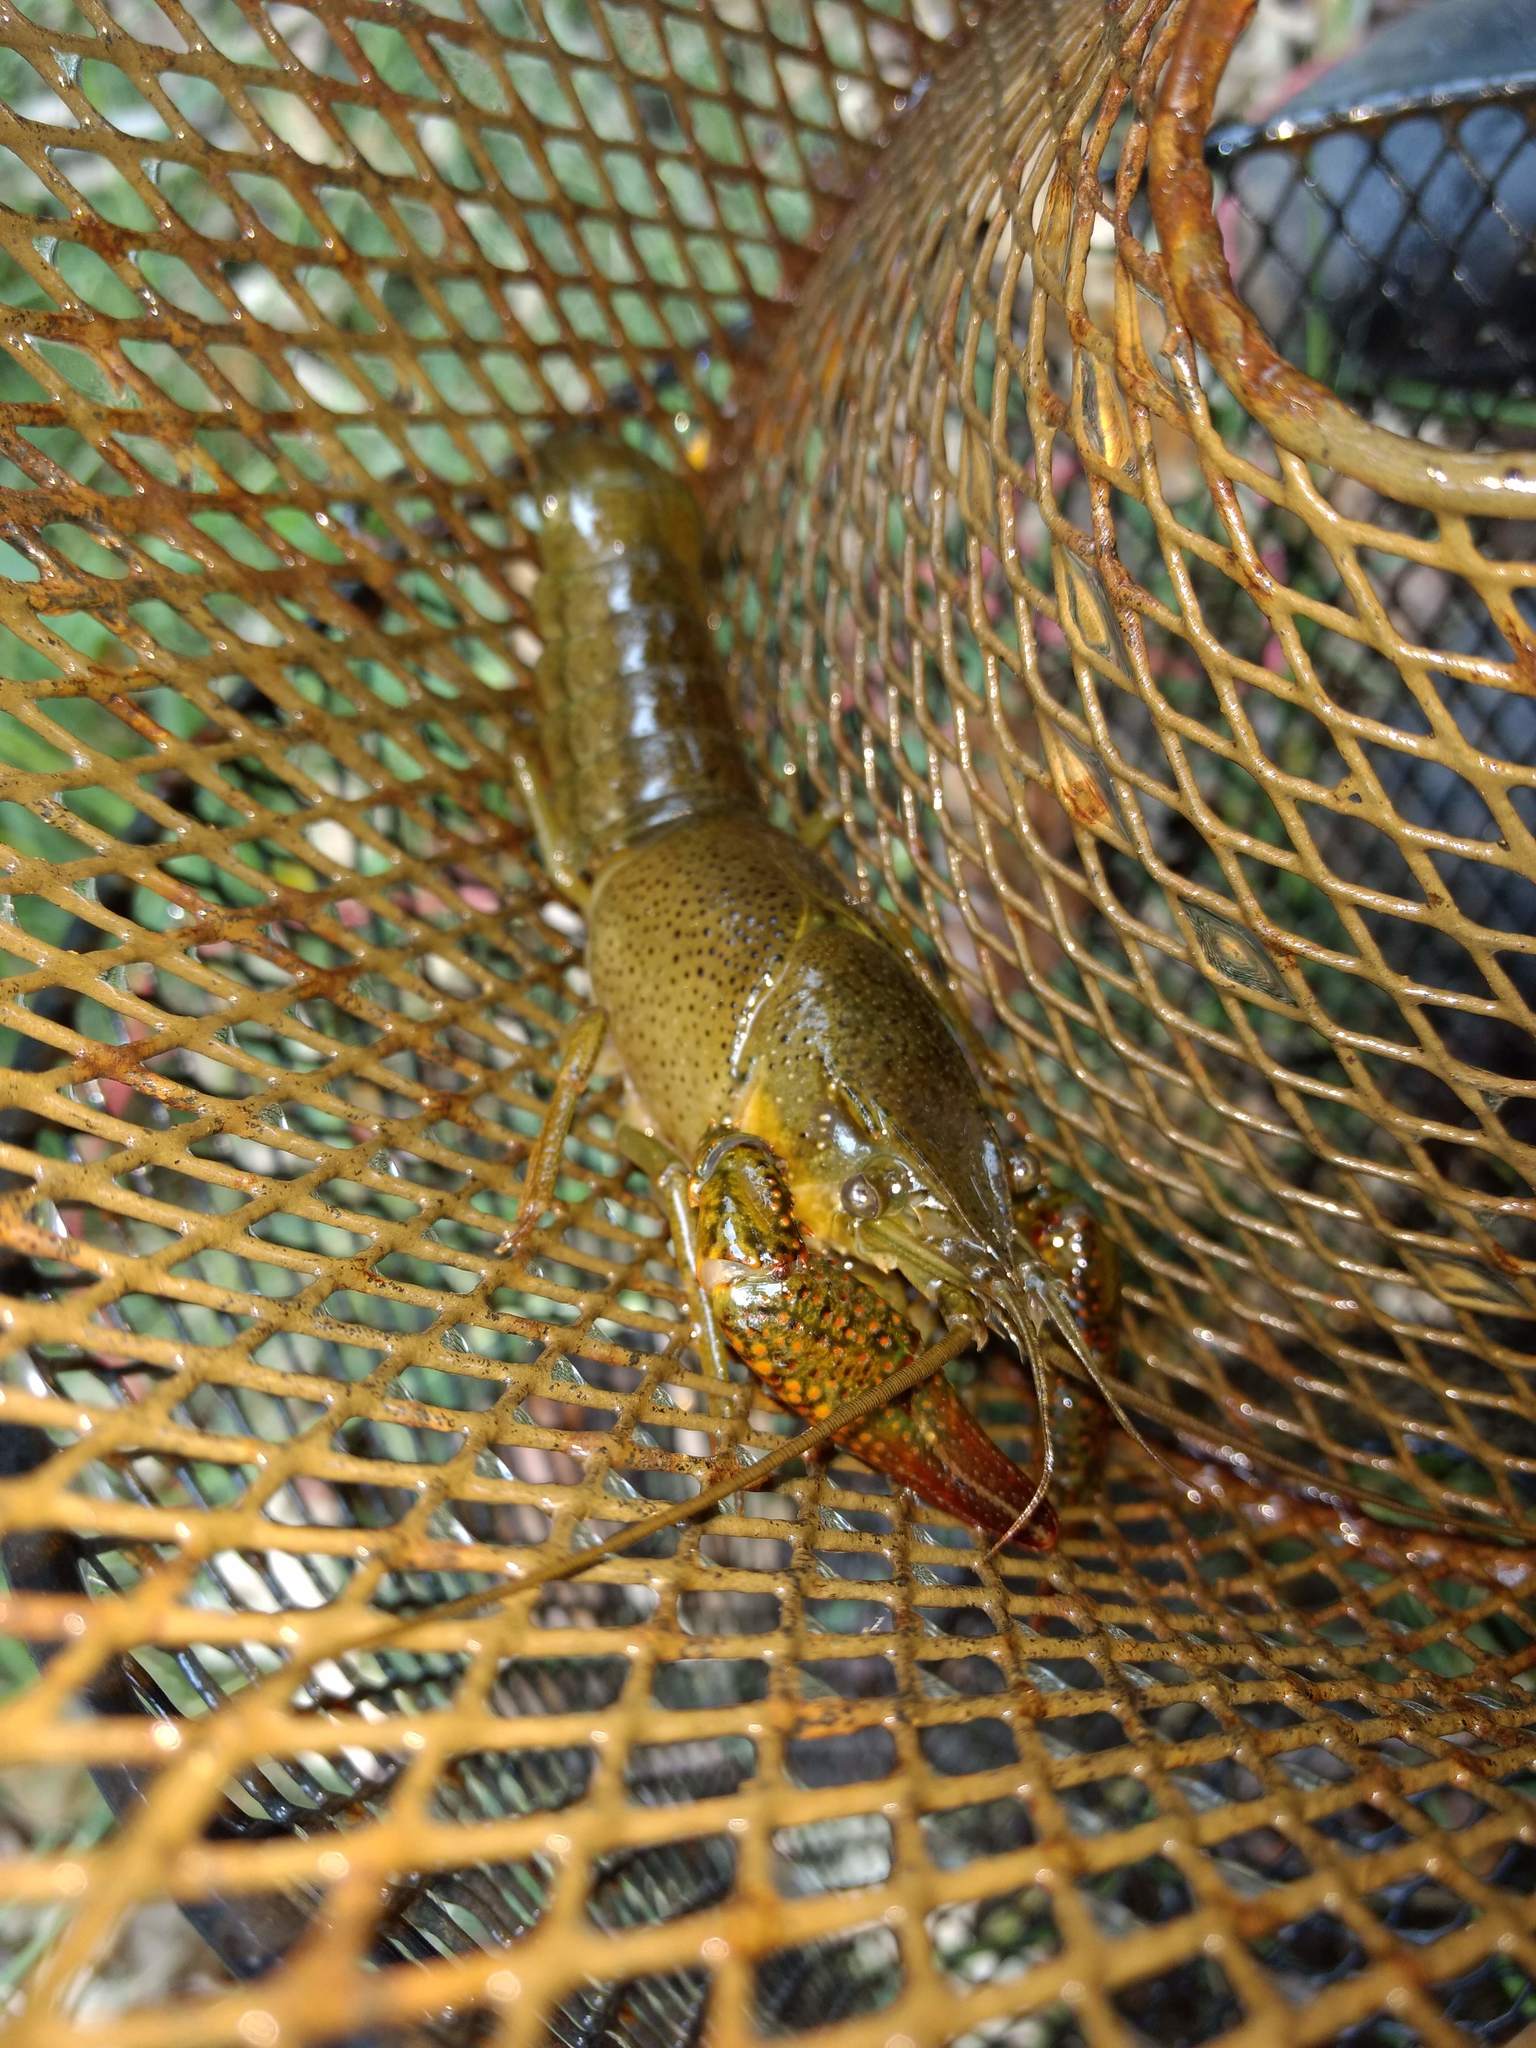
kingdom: Animalia
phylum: Arthropoda
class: Malacostraca
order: Decapoda
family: Cambaridae
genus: Procambarus
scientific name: Procambarus clarkii
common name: Red swamp crayfish
